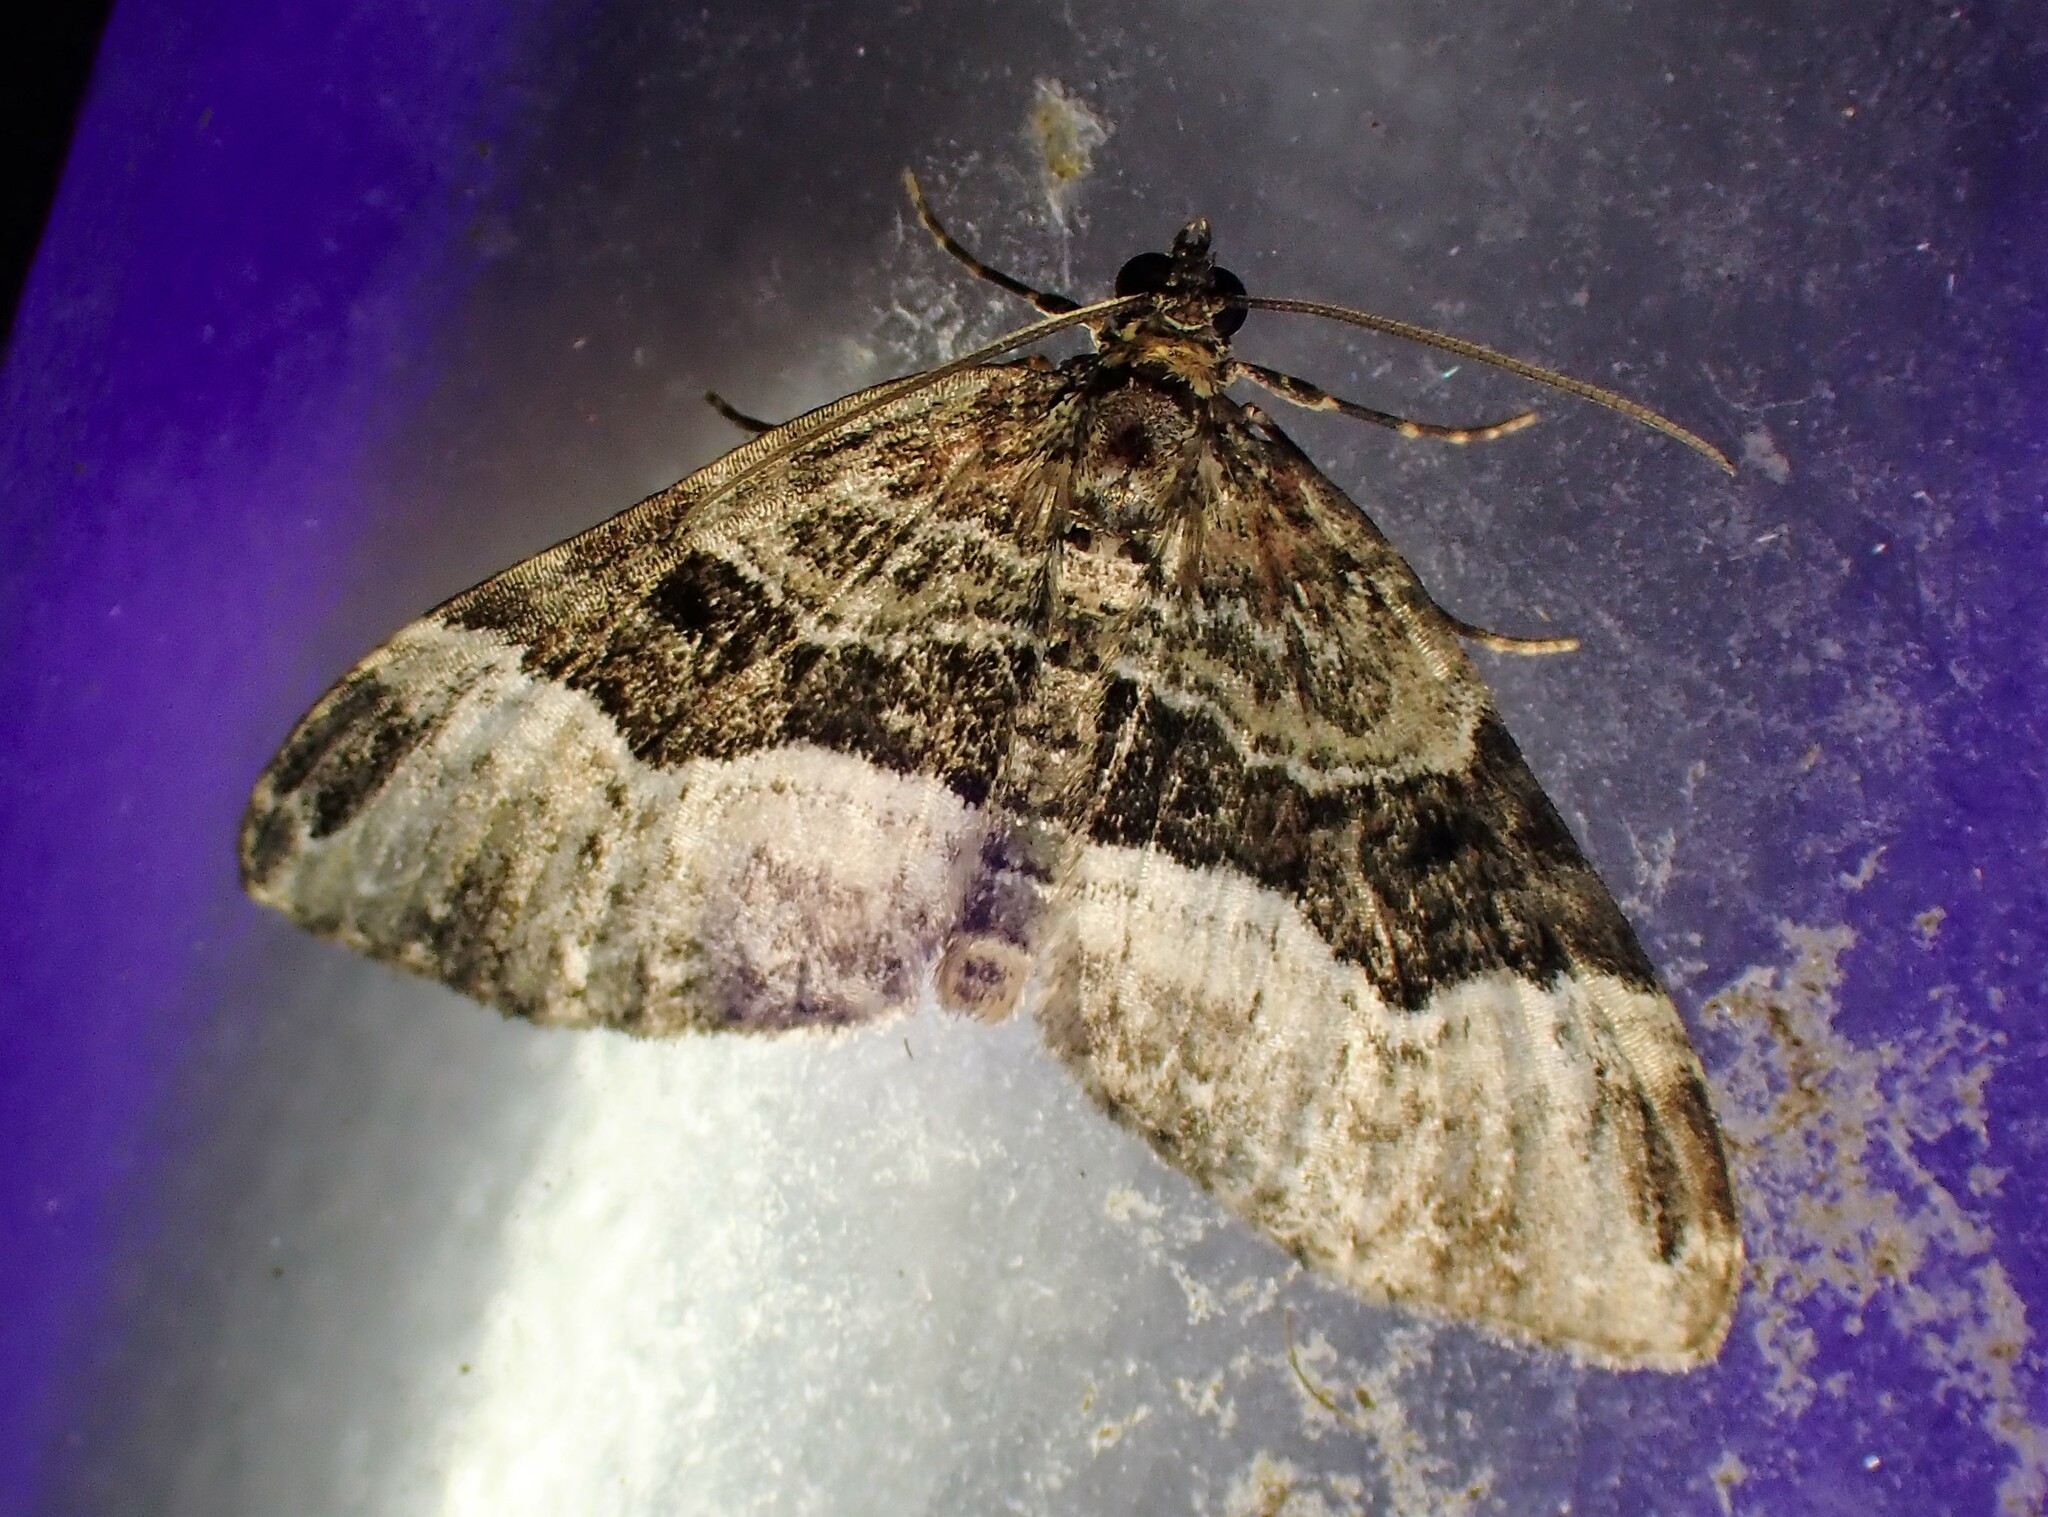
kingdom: Animalia
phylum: Arthropoda
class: Insecta
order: Lepidoptera
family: Geometridae
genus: Euphyia
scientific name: Euphyia intermediata
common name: Sharp-angled carpet
